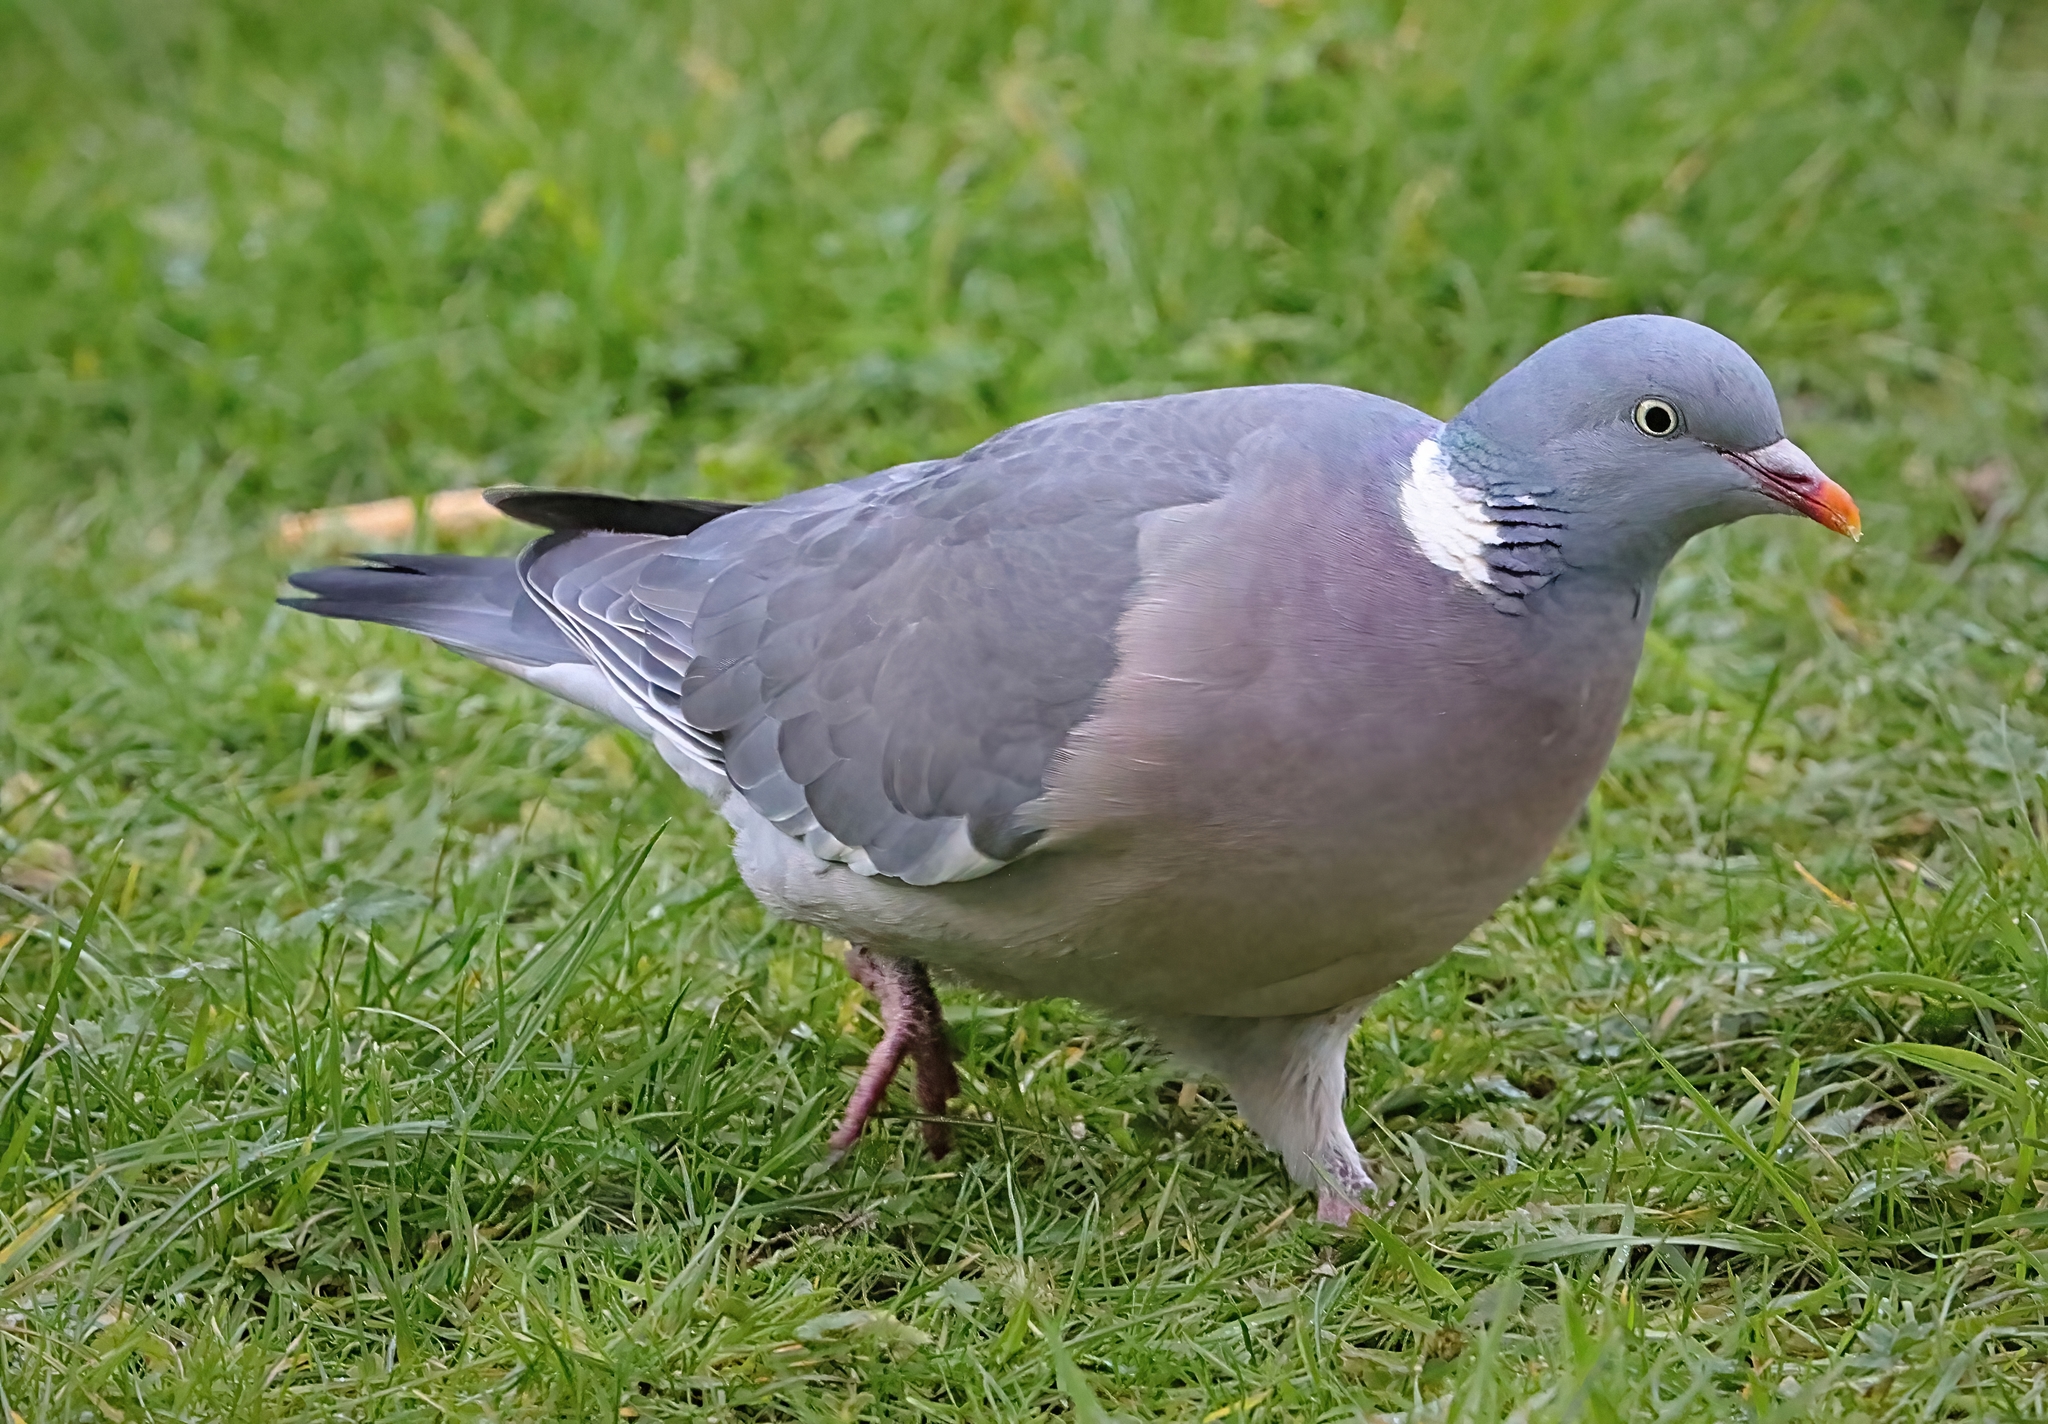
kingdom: Animalia
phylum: Chordata
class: Aves
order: Columbiformes
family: Columbidae
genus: Columba
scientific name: Columba palumbus
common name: Common wood pigeon
